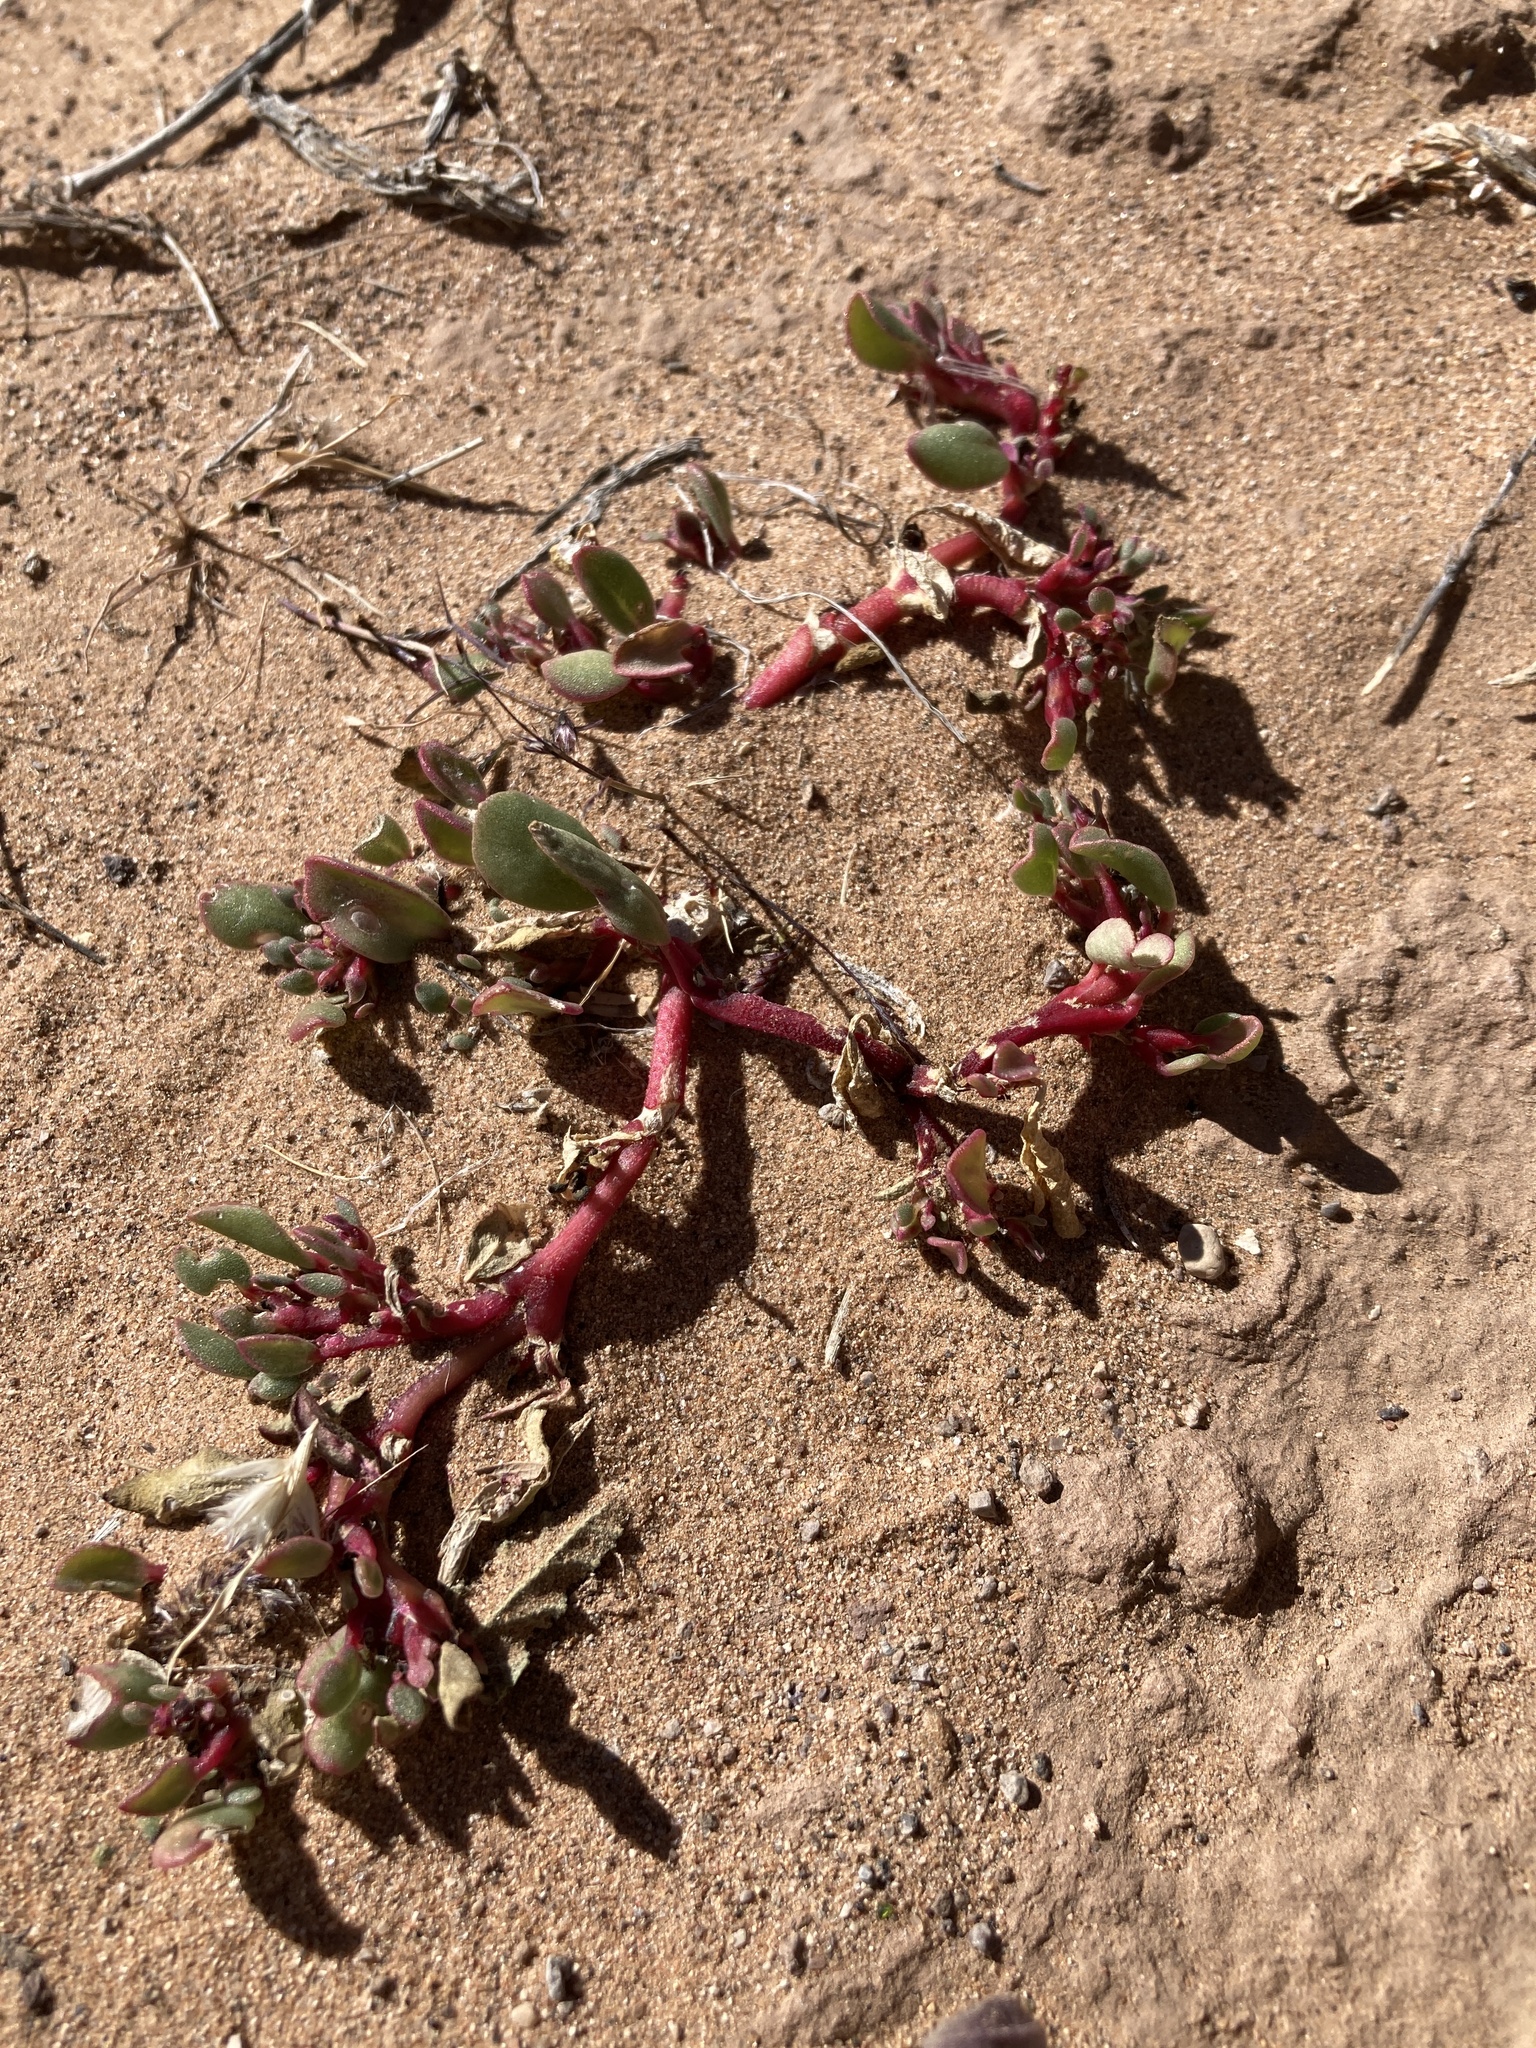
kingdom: Plantae
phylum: Tracheophyta
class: Magnoliopsida
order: Caryophyllales
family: Aizoaceae
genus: Trianthema
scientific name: Trianthema portulacastrum
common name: Desert horsepurslane
